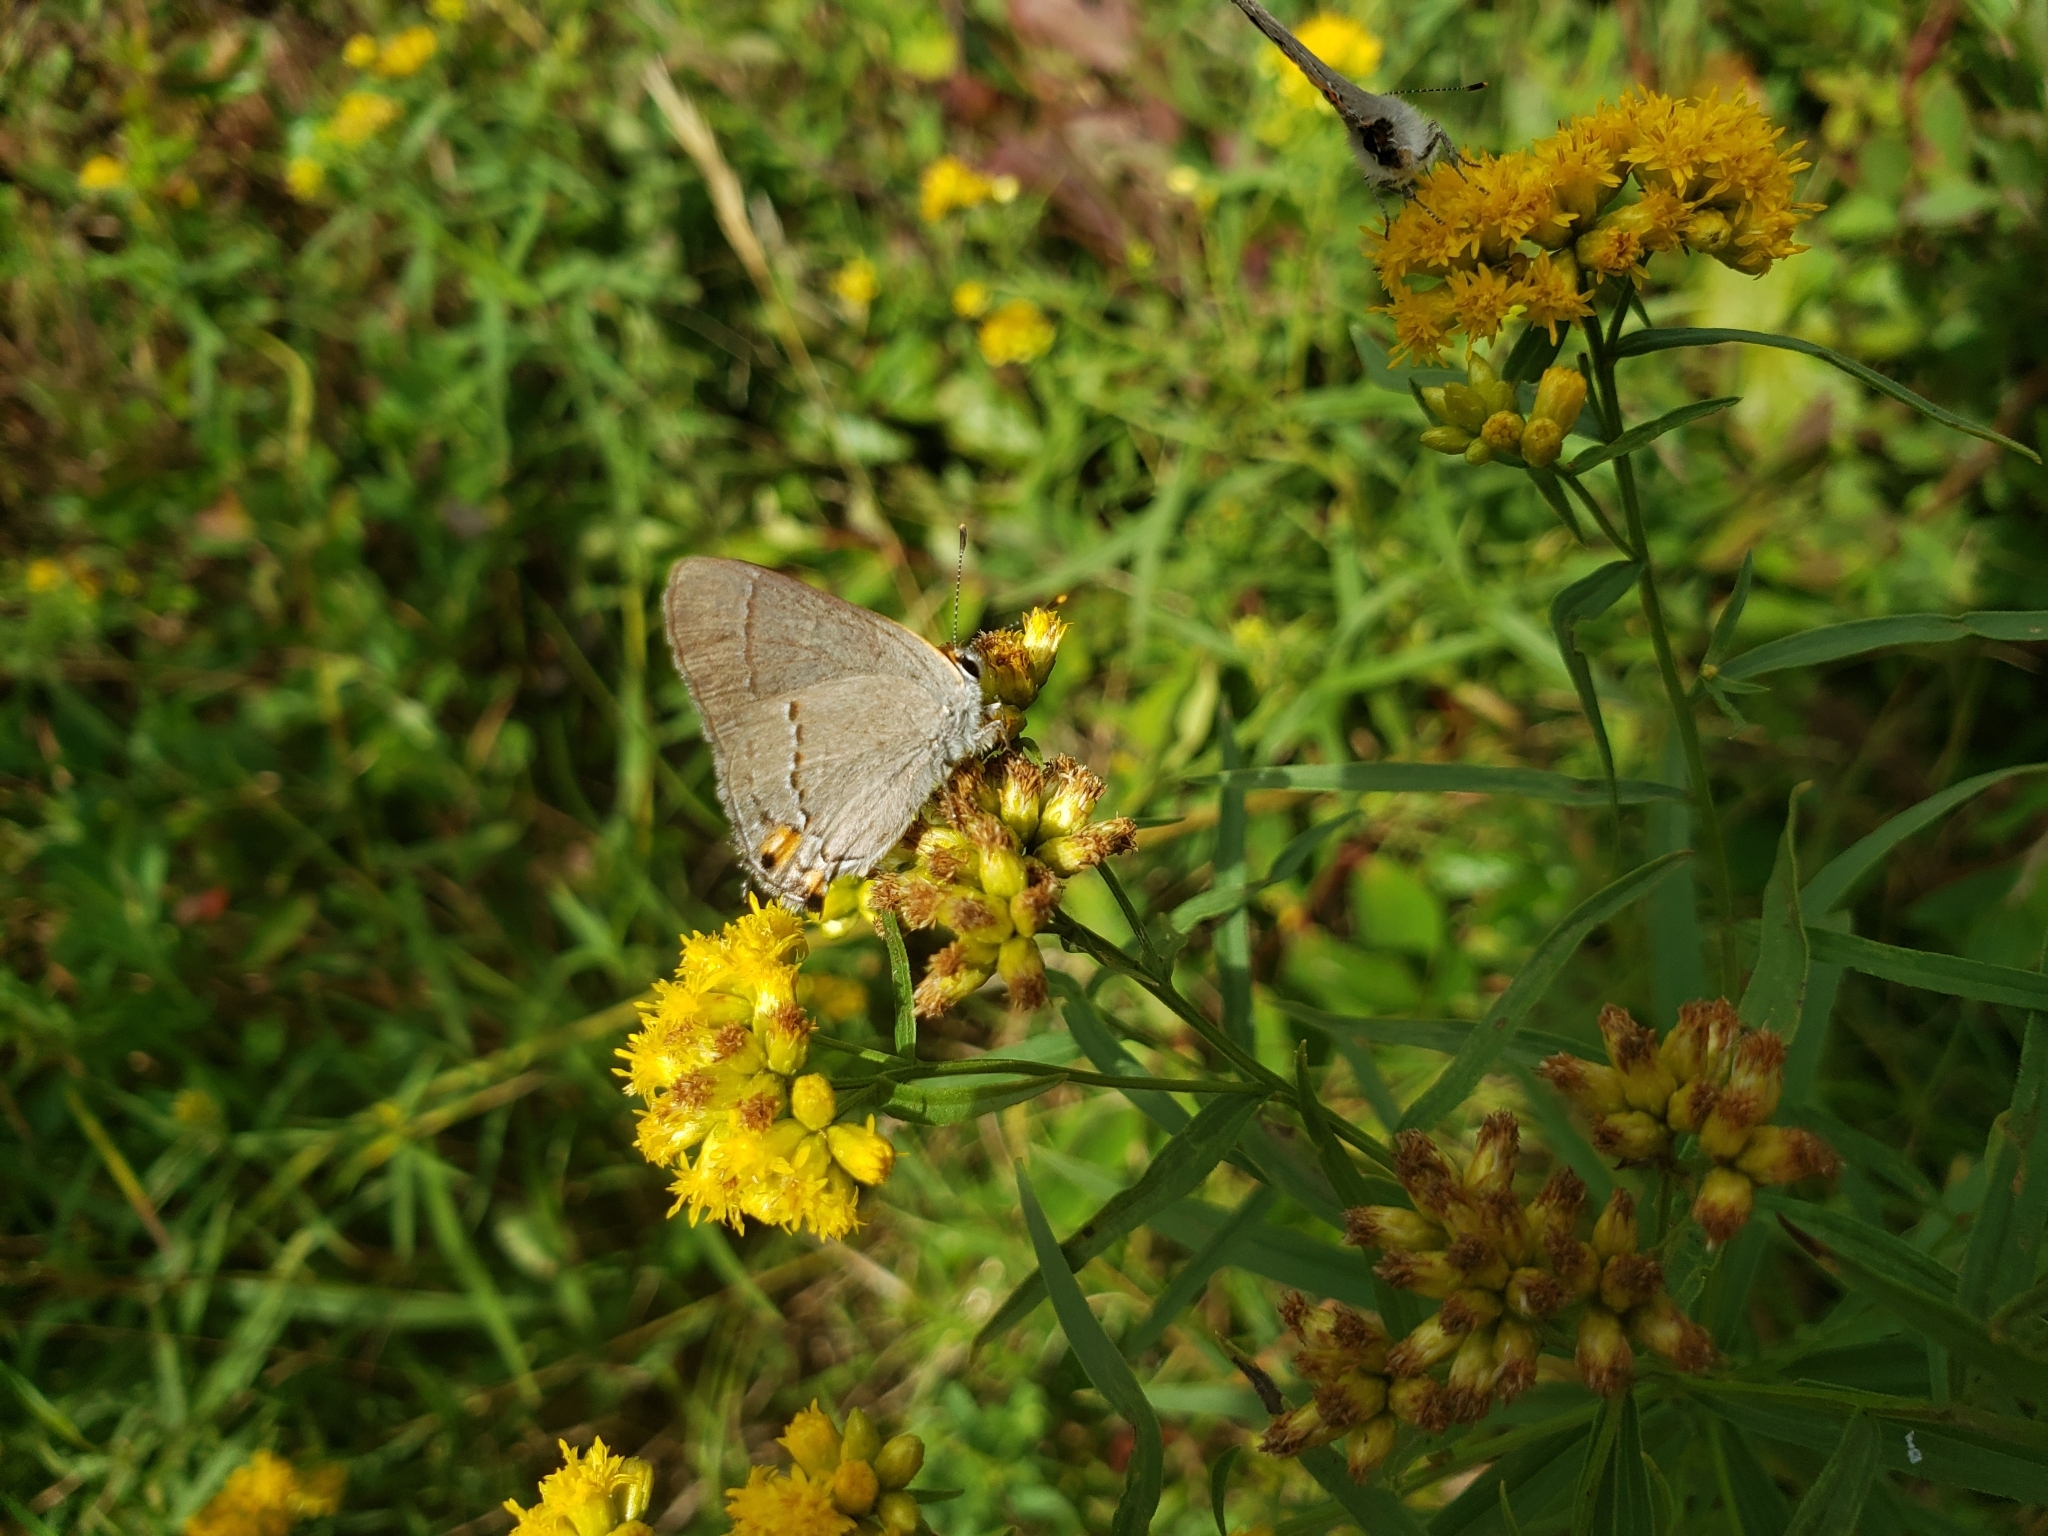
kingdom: Animalia
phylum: Arthropoda
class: Insecta
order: Lepidoptera
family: Lycaenidae
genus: Strymon
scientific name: Strymon melinus
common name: Gray hairstreak
